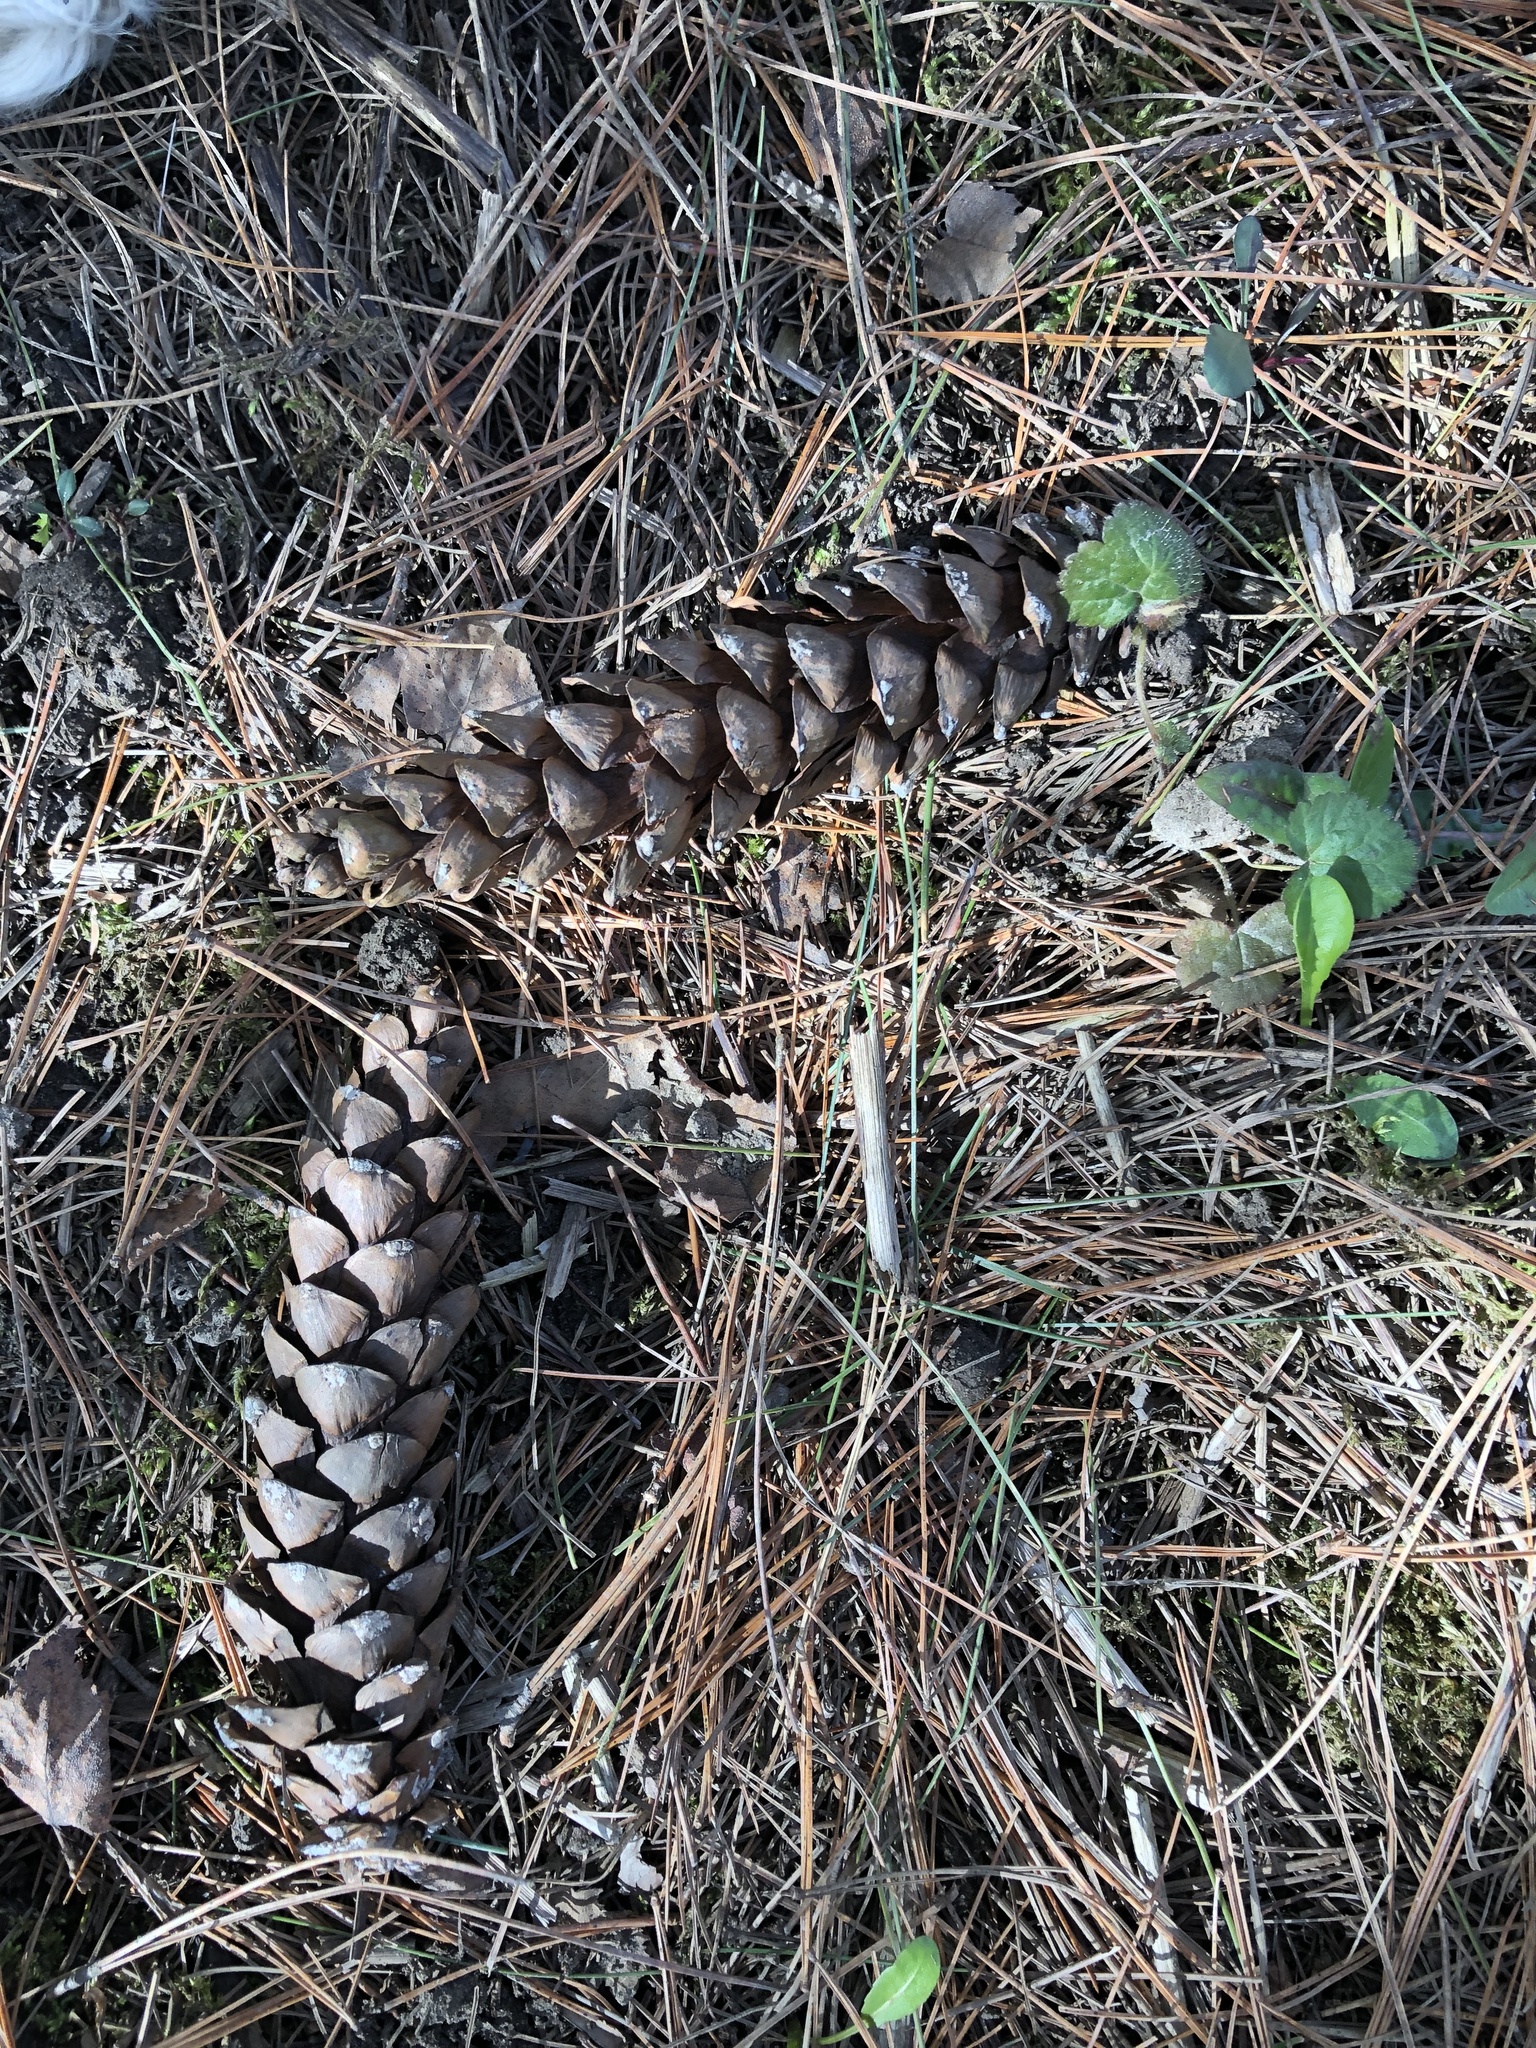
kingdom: Plantae
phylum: Tracheophyta
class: Pinopsida
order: Pinales
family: Pinaceae
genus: Pinus
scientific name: Pinus strobus
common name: Weymouth pine
